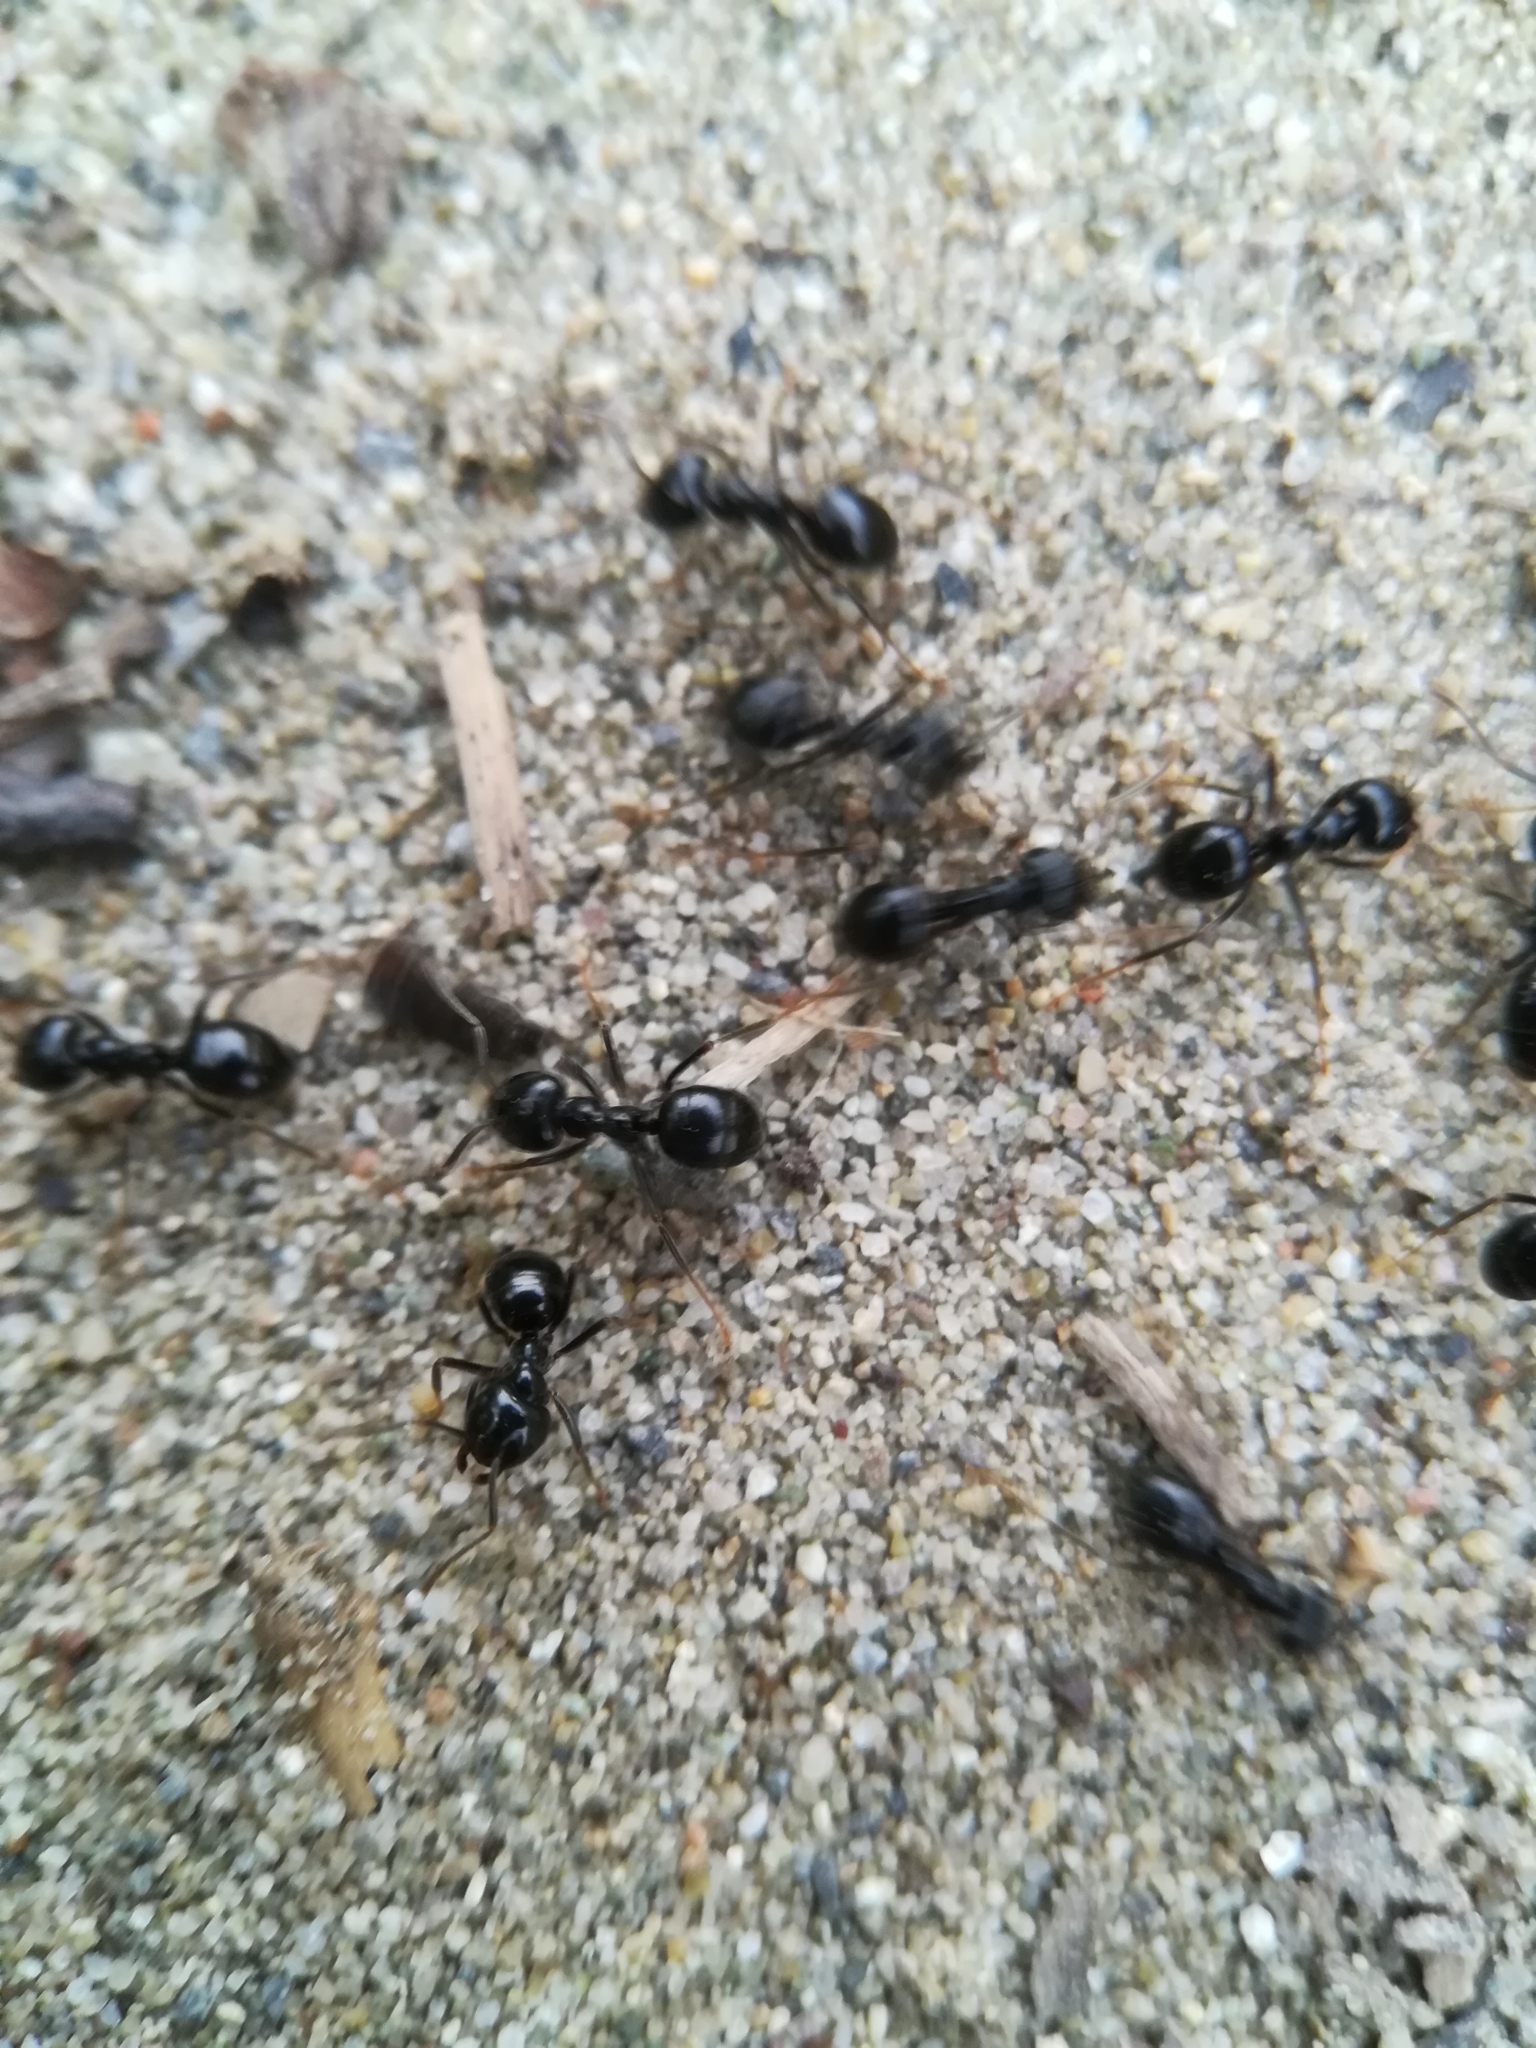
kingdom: Animalia
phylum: Arthropoda
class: Insecta
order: Hymenoptera
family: Formicidae
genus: Lasius
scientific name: Lasius fuliginosus
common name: Jet ant
